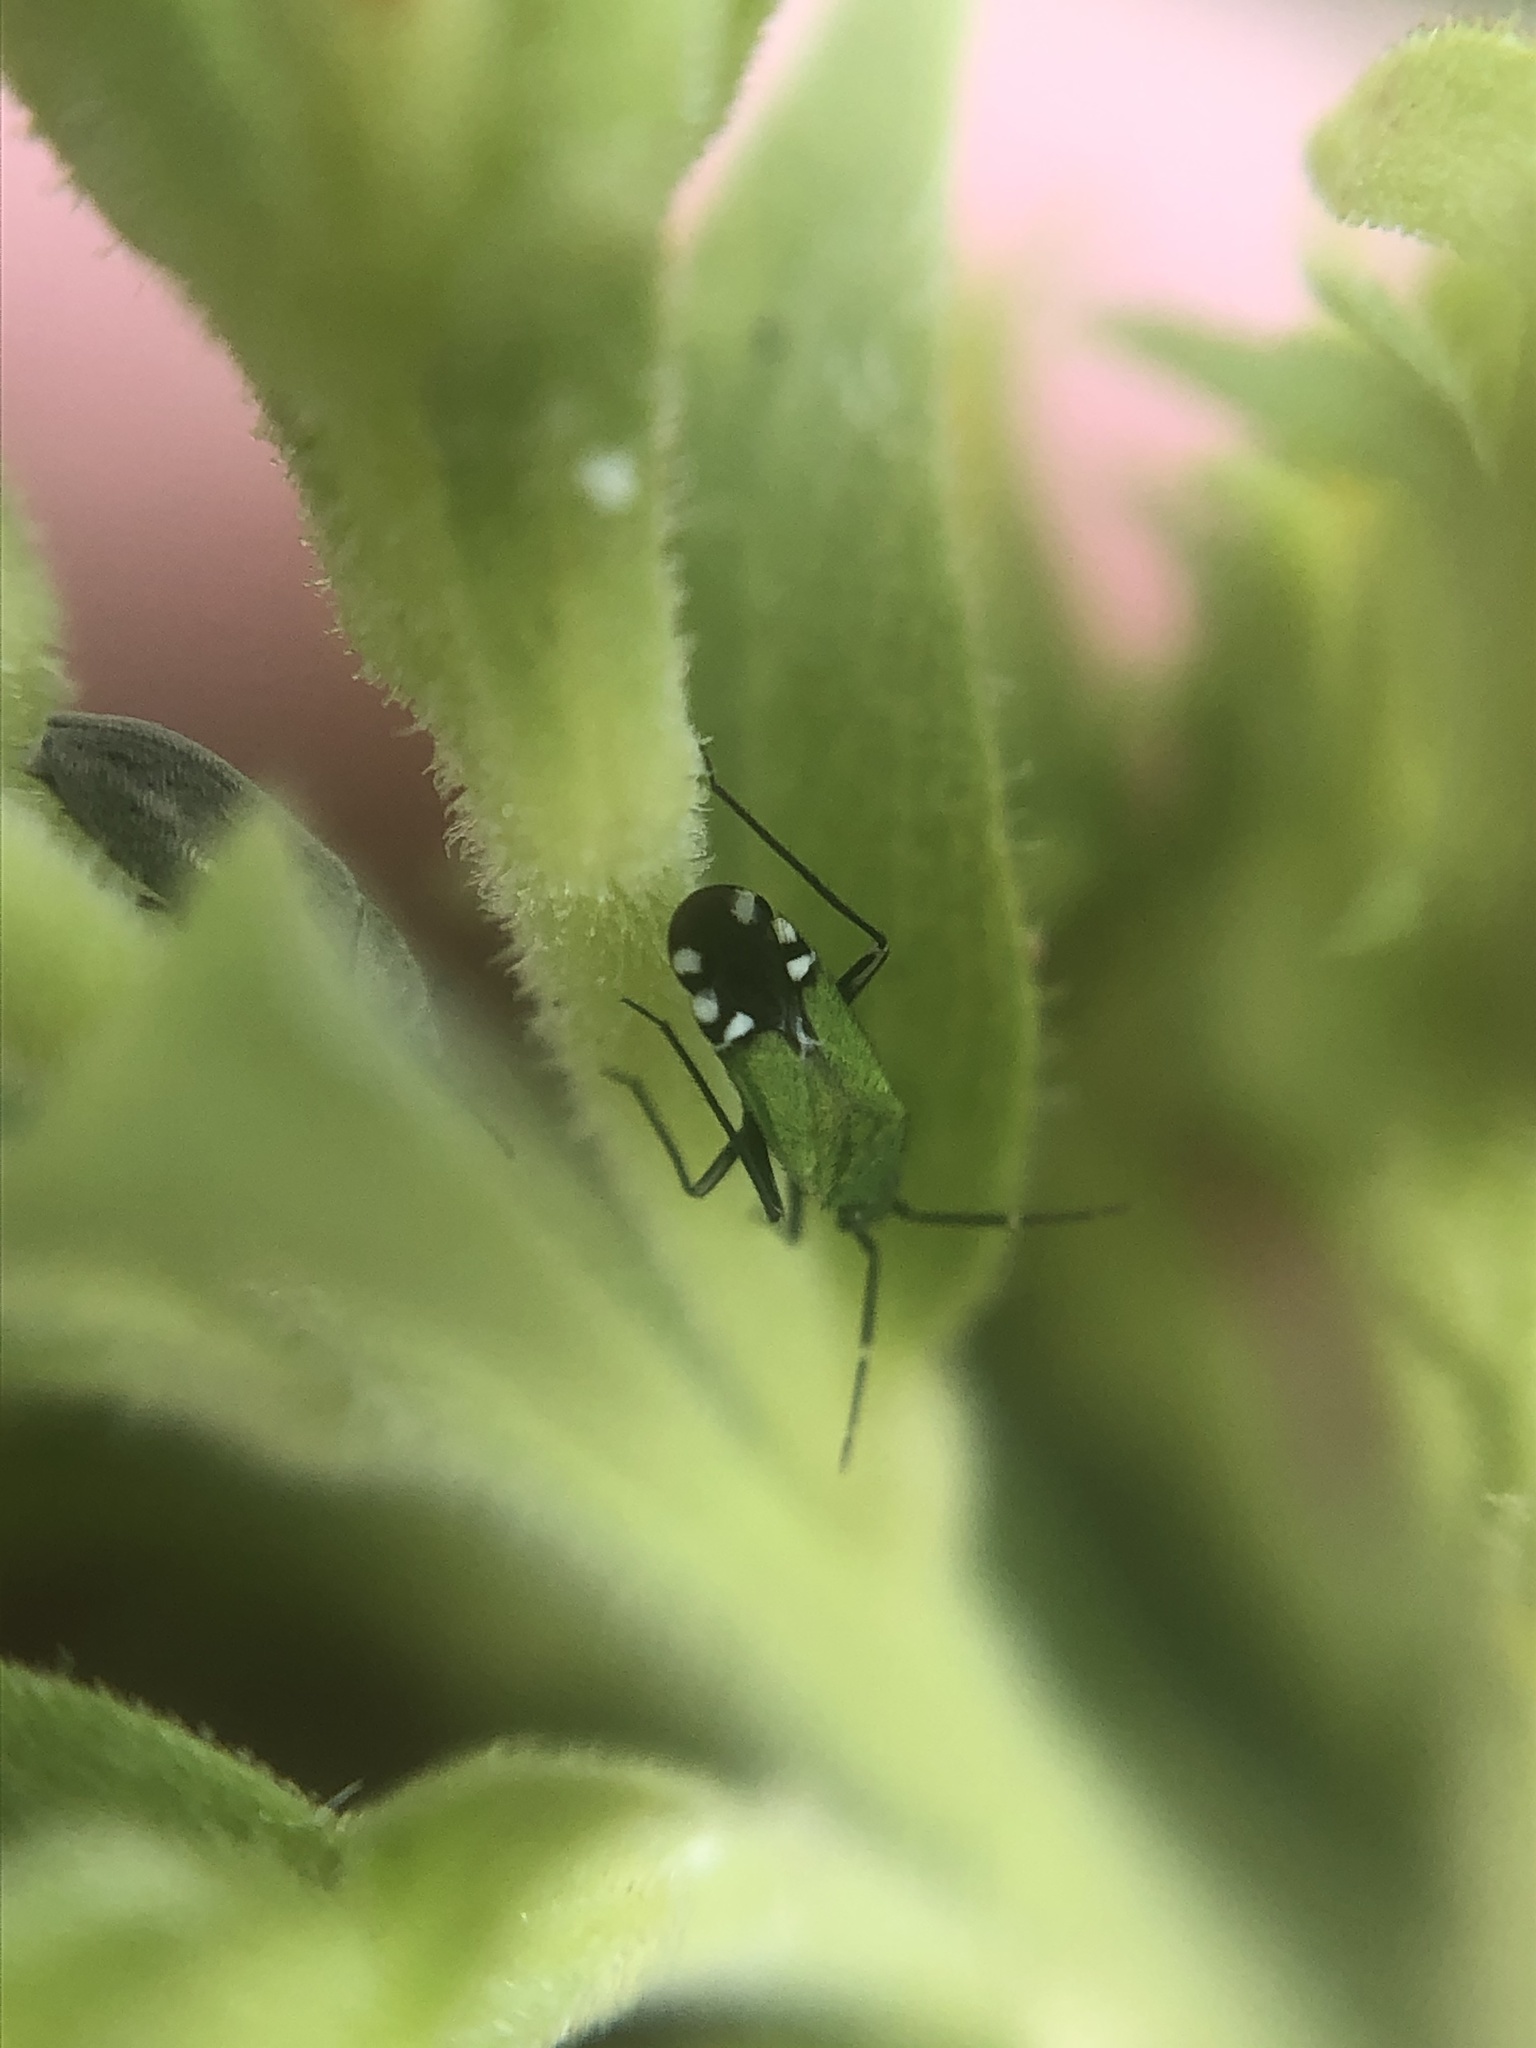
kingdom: Animalia
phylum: Arthropoda
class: Insecta
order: Hemiptera
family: Miridae
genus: Macrotylus
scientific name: Macrotylus amoenus
